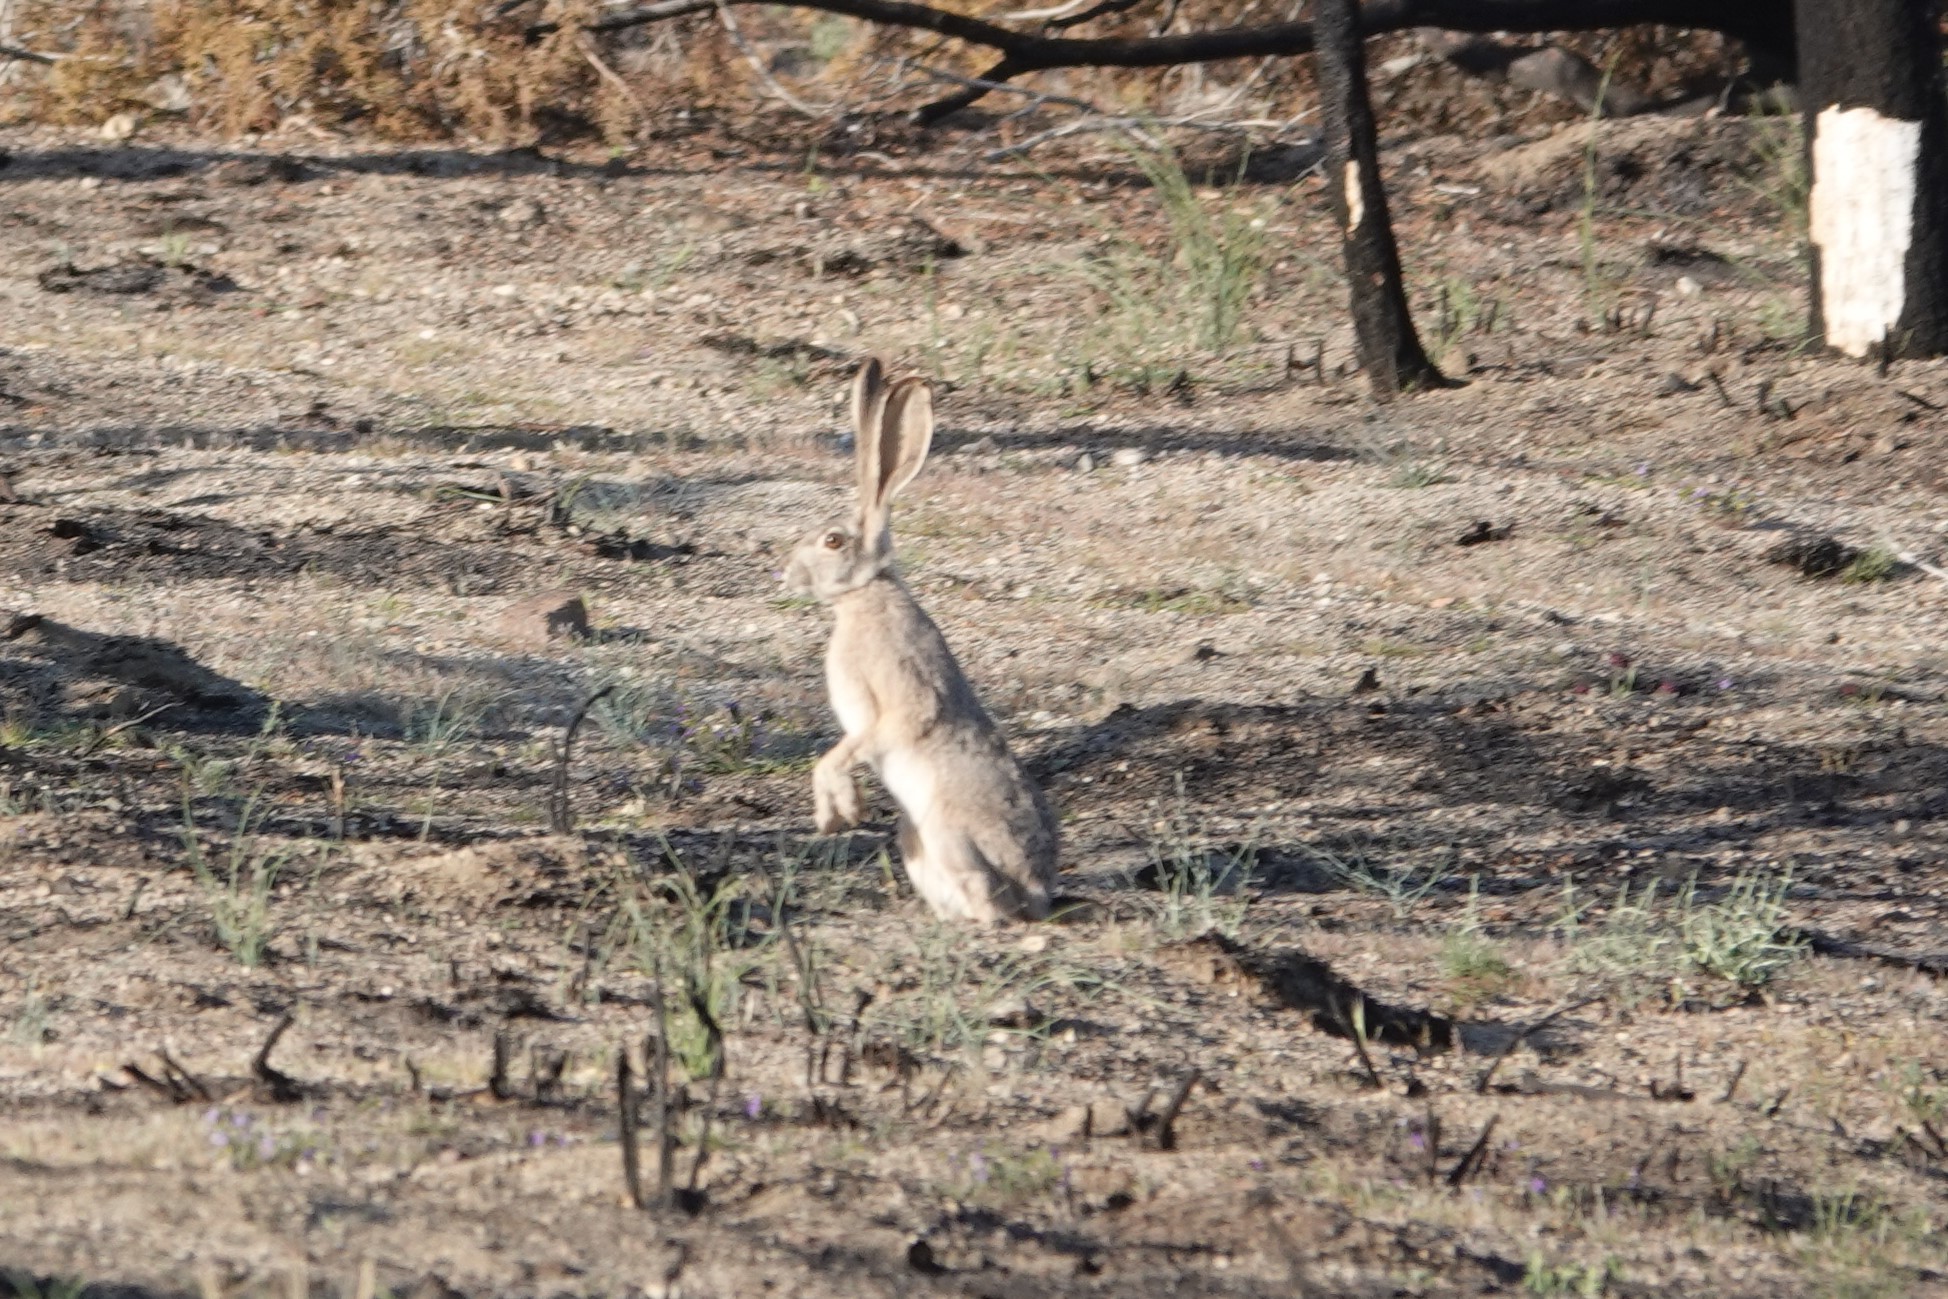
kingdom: Animalia
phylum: Chordata
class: Mammalia
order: Lagomorpha
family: Leporidae
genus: Lepus
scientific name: Lepus californicus
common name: Black-tailed jackrabbit
